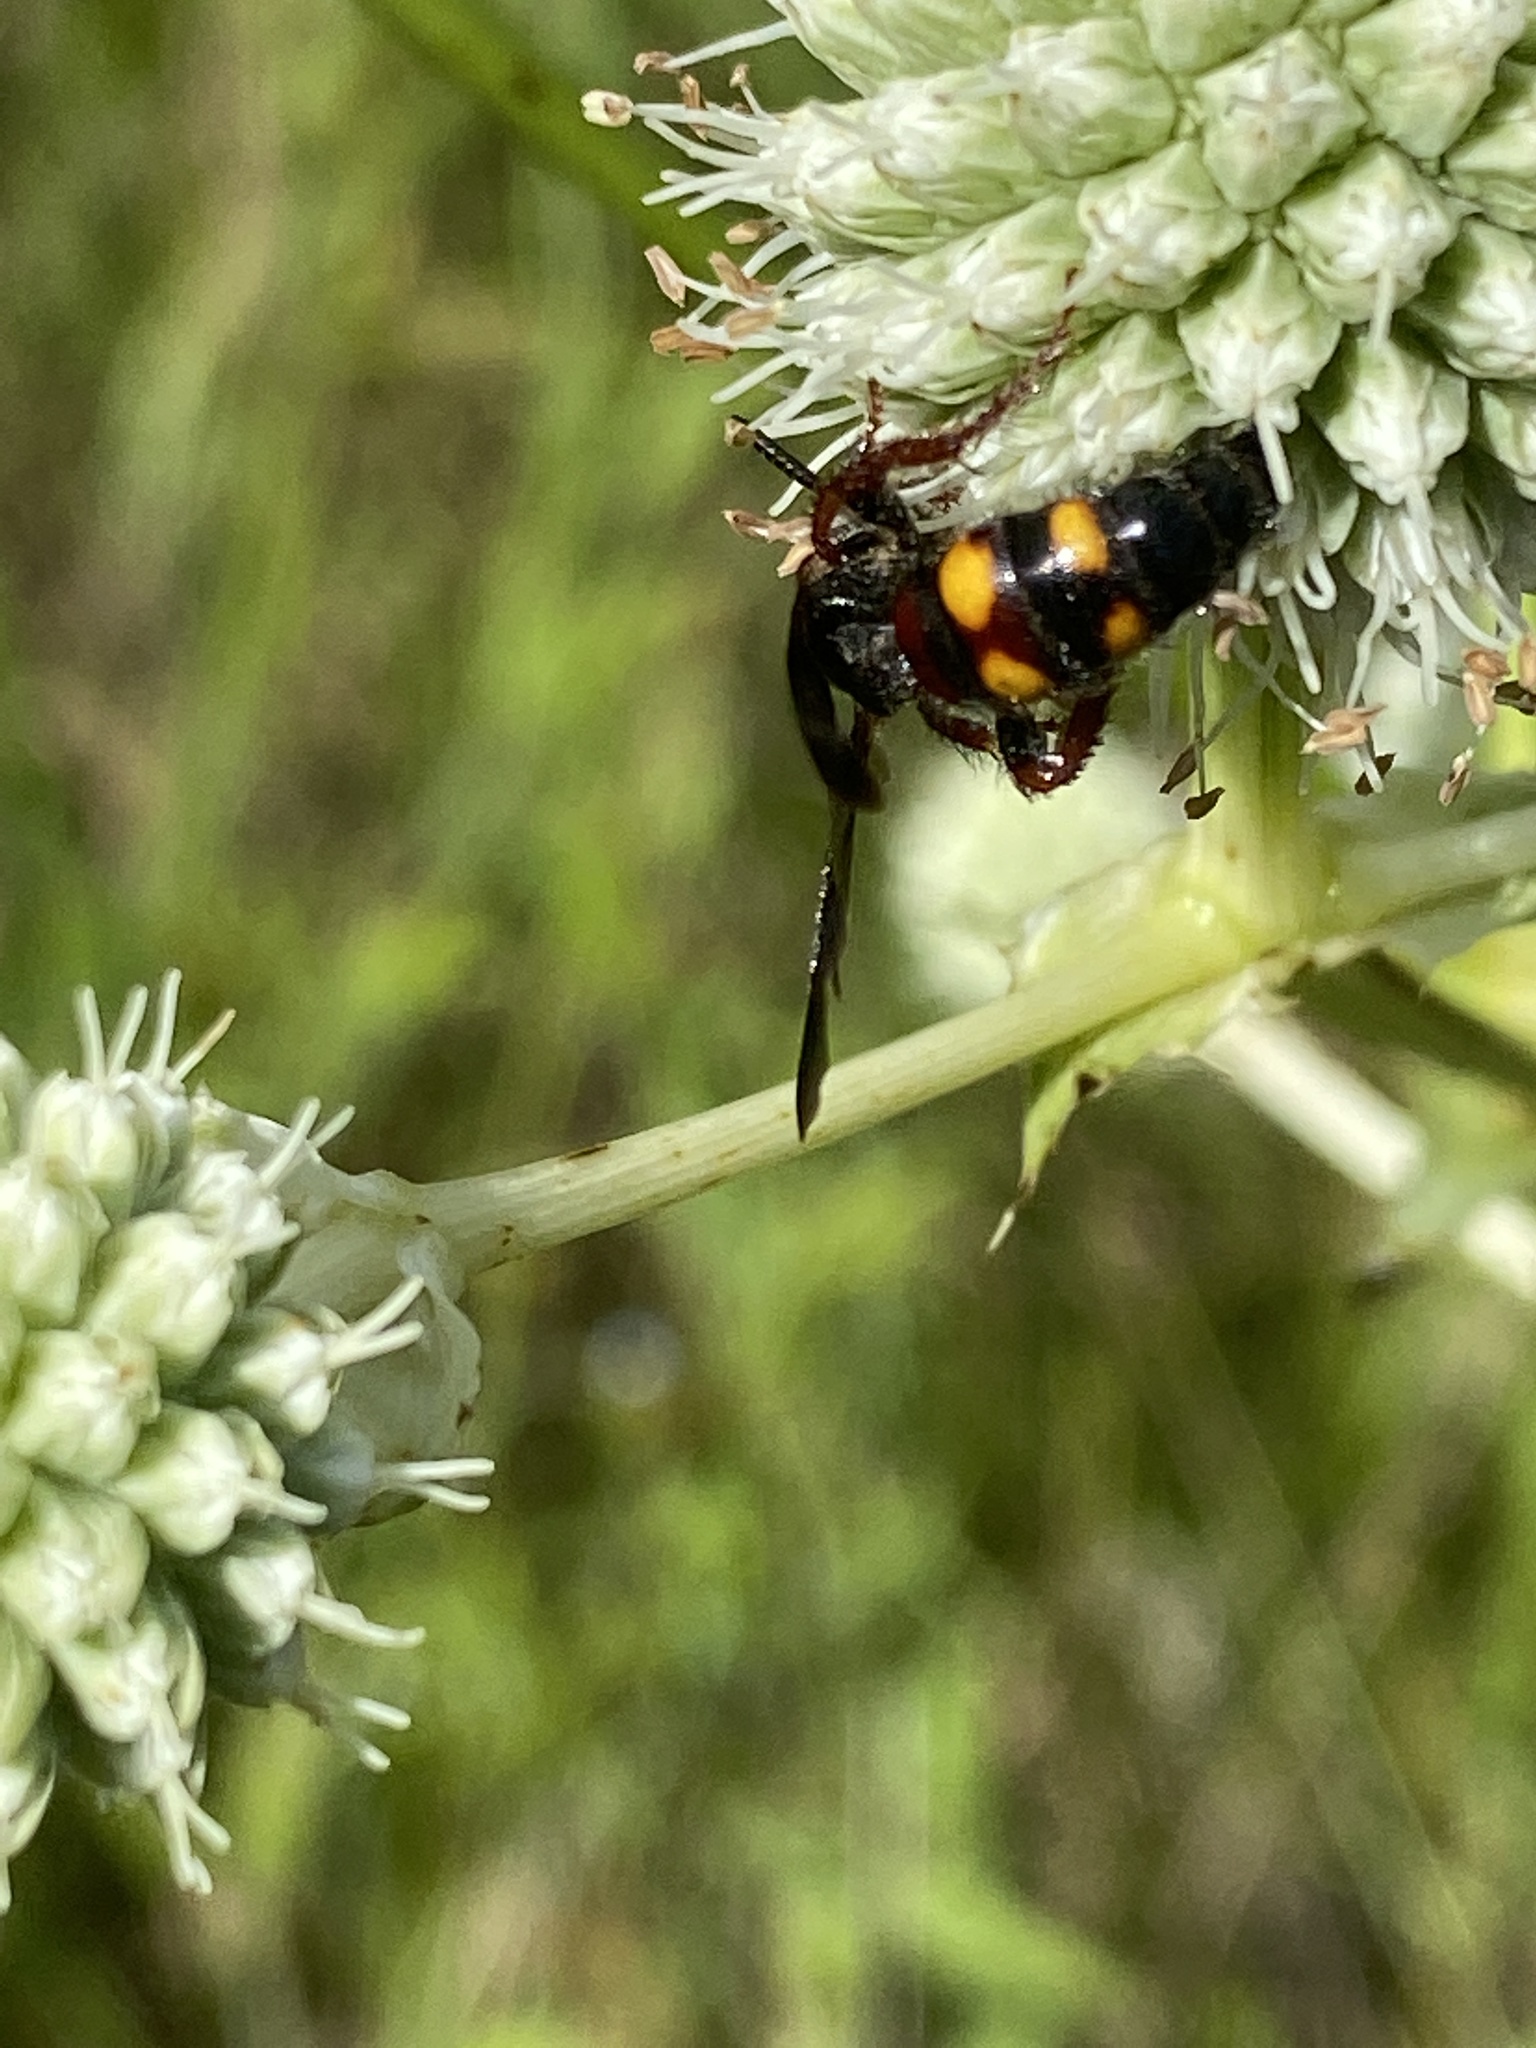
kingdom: Animalia
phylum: Arthropoda
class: Insecta
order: Hymenoptera
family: Scoliidae
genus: Scolia
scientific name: Scolia nobilitata
